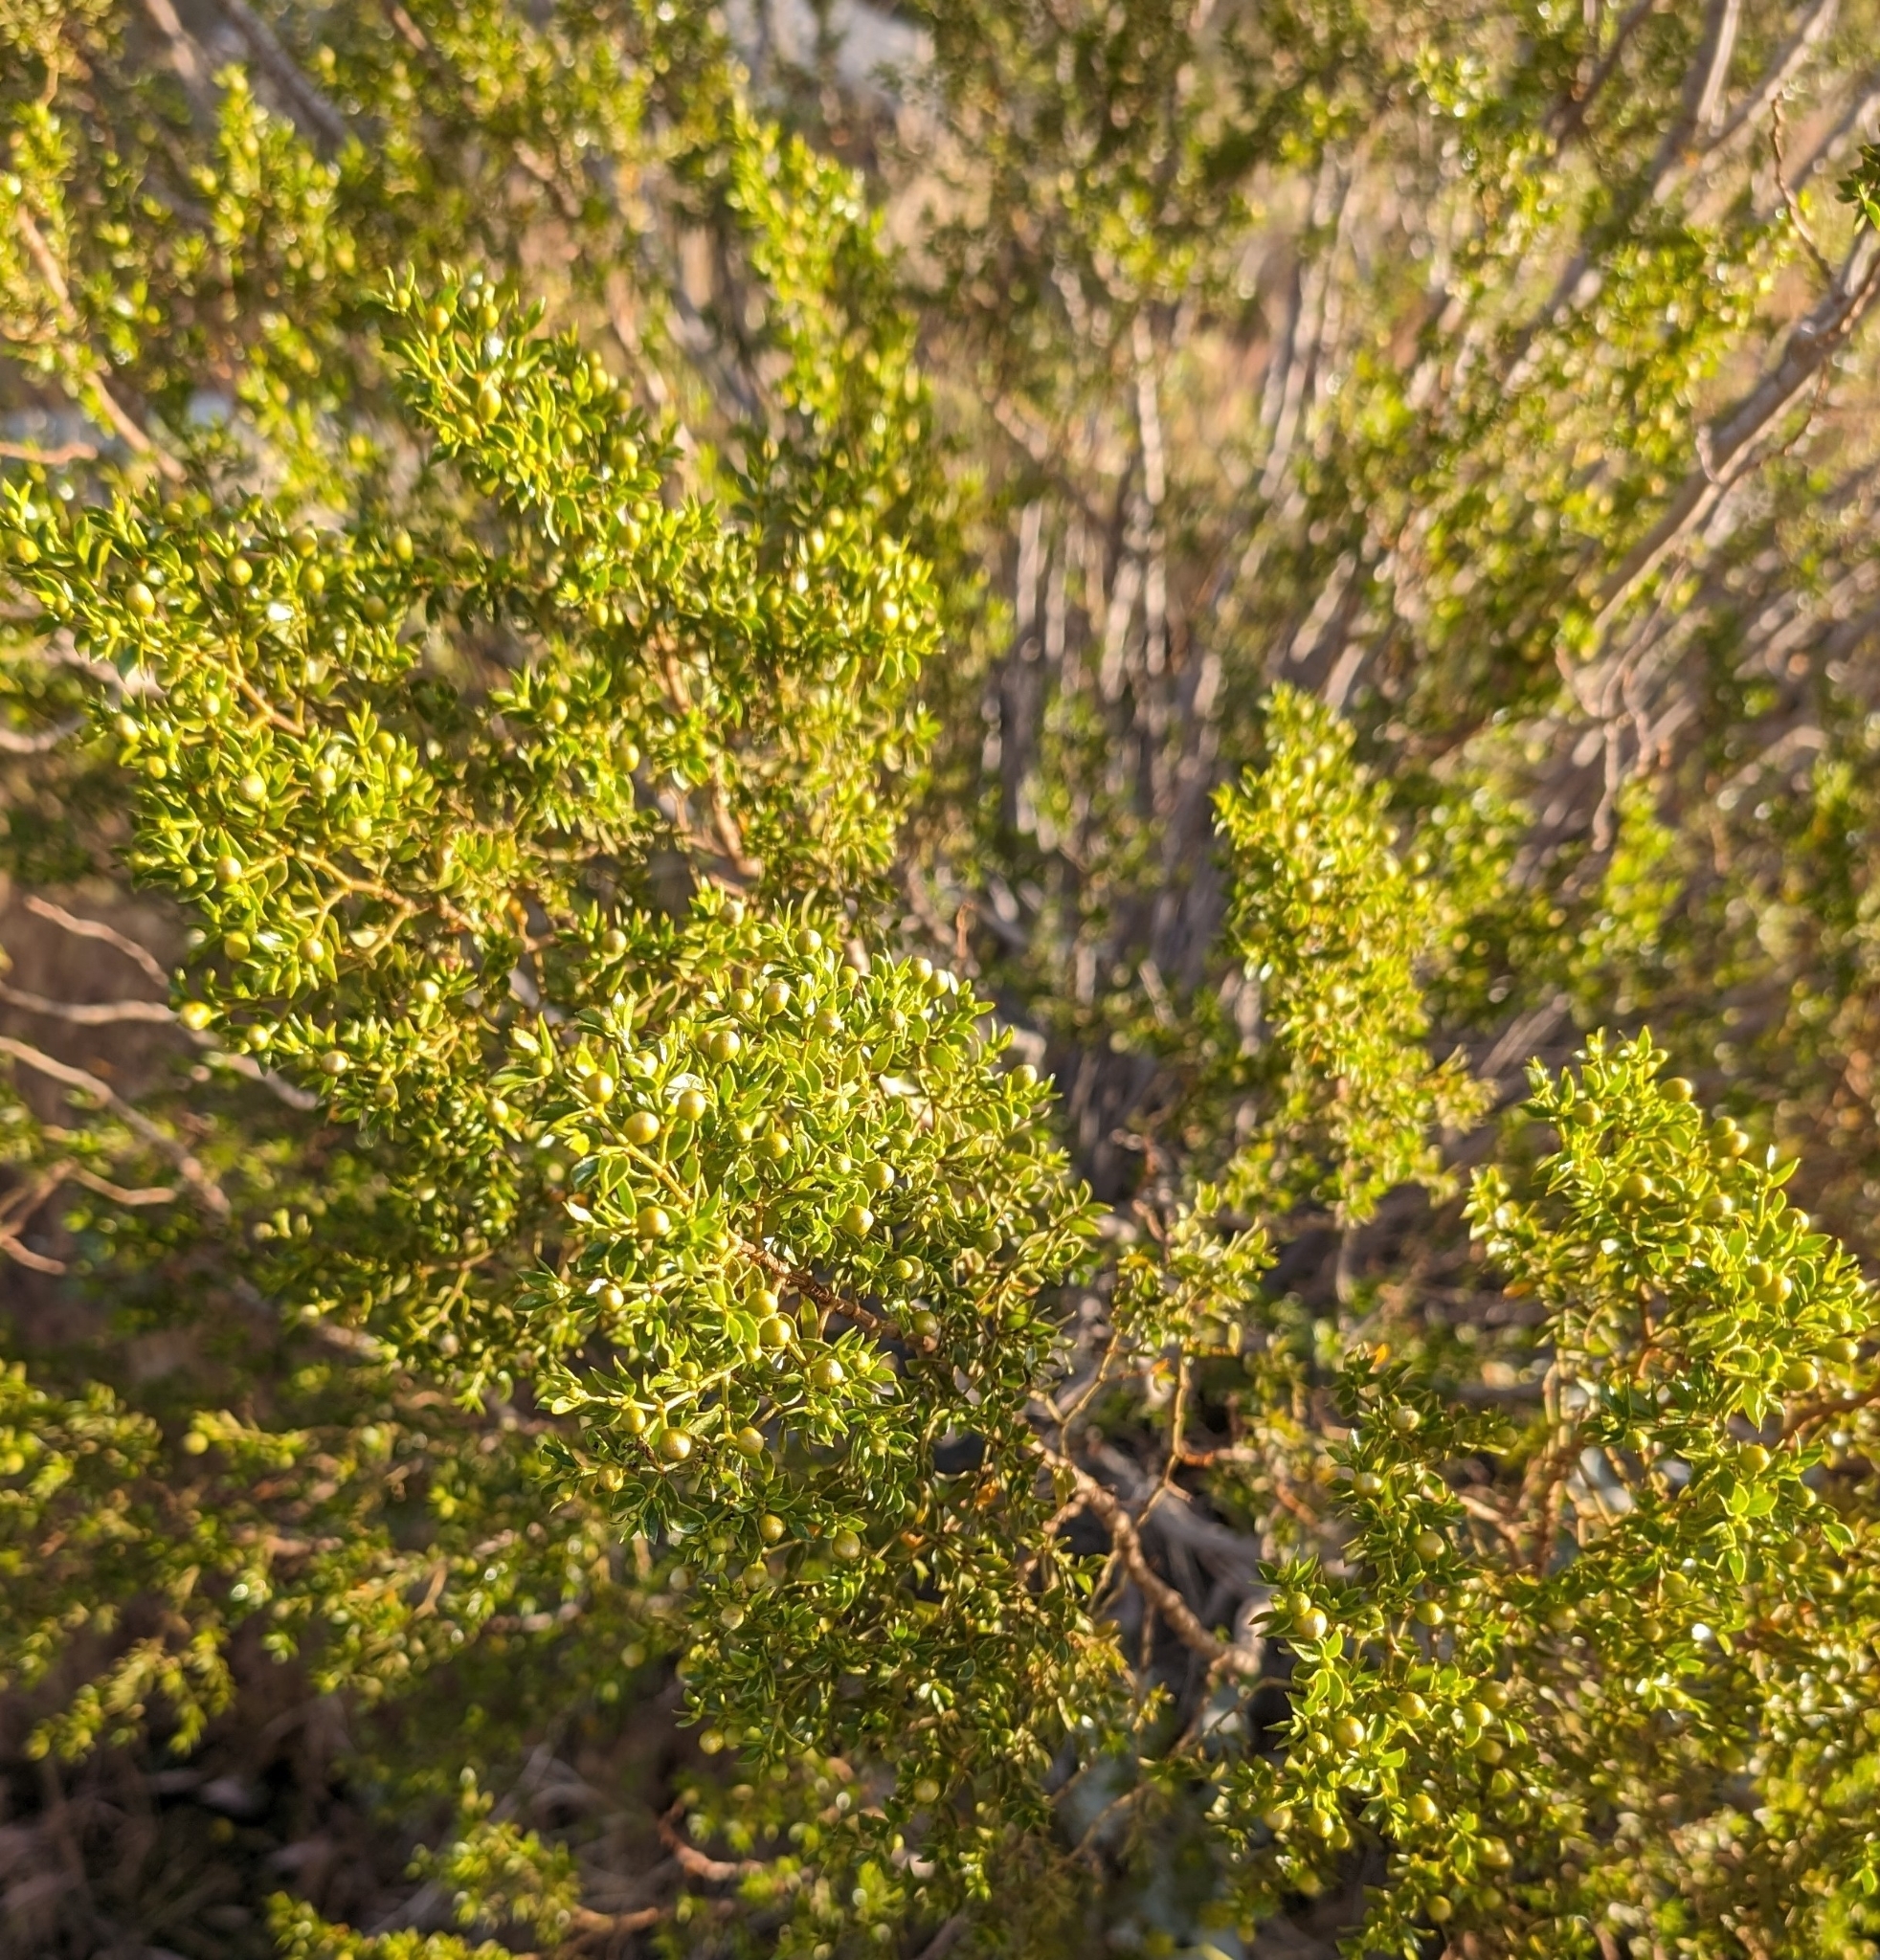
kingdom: Plantae
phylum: Tracheophyta
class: Magnoliopsida
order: Zygophyllales
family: Zygophyllaceae
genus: Larrea
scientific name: Larrea tridentata
